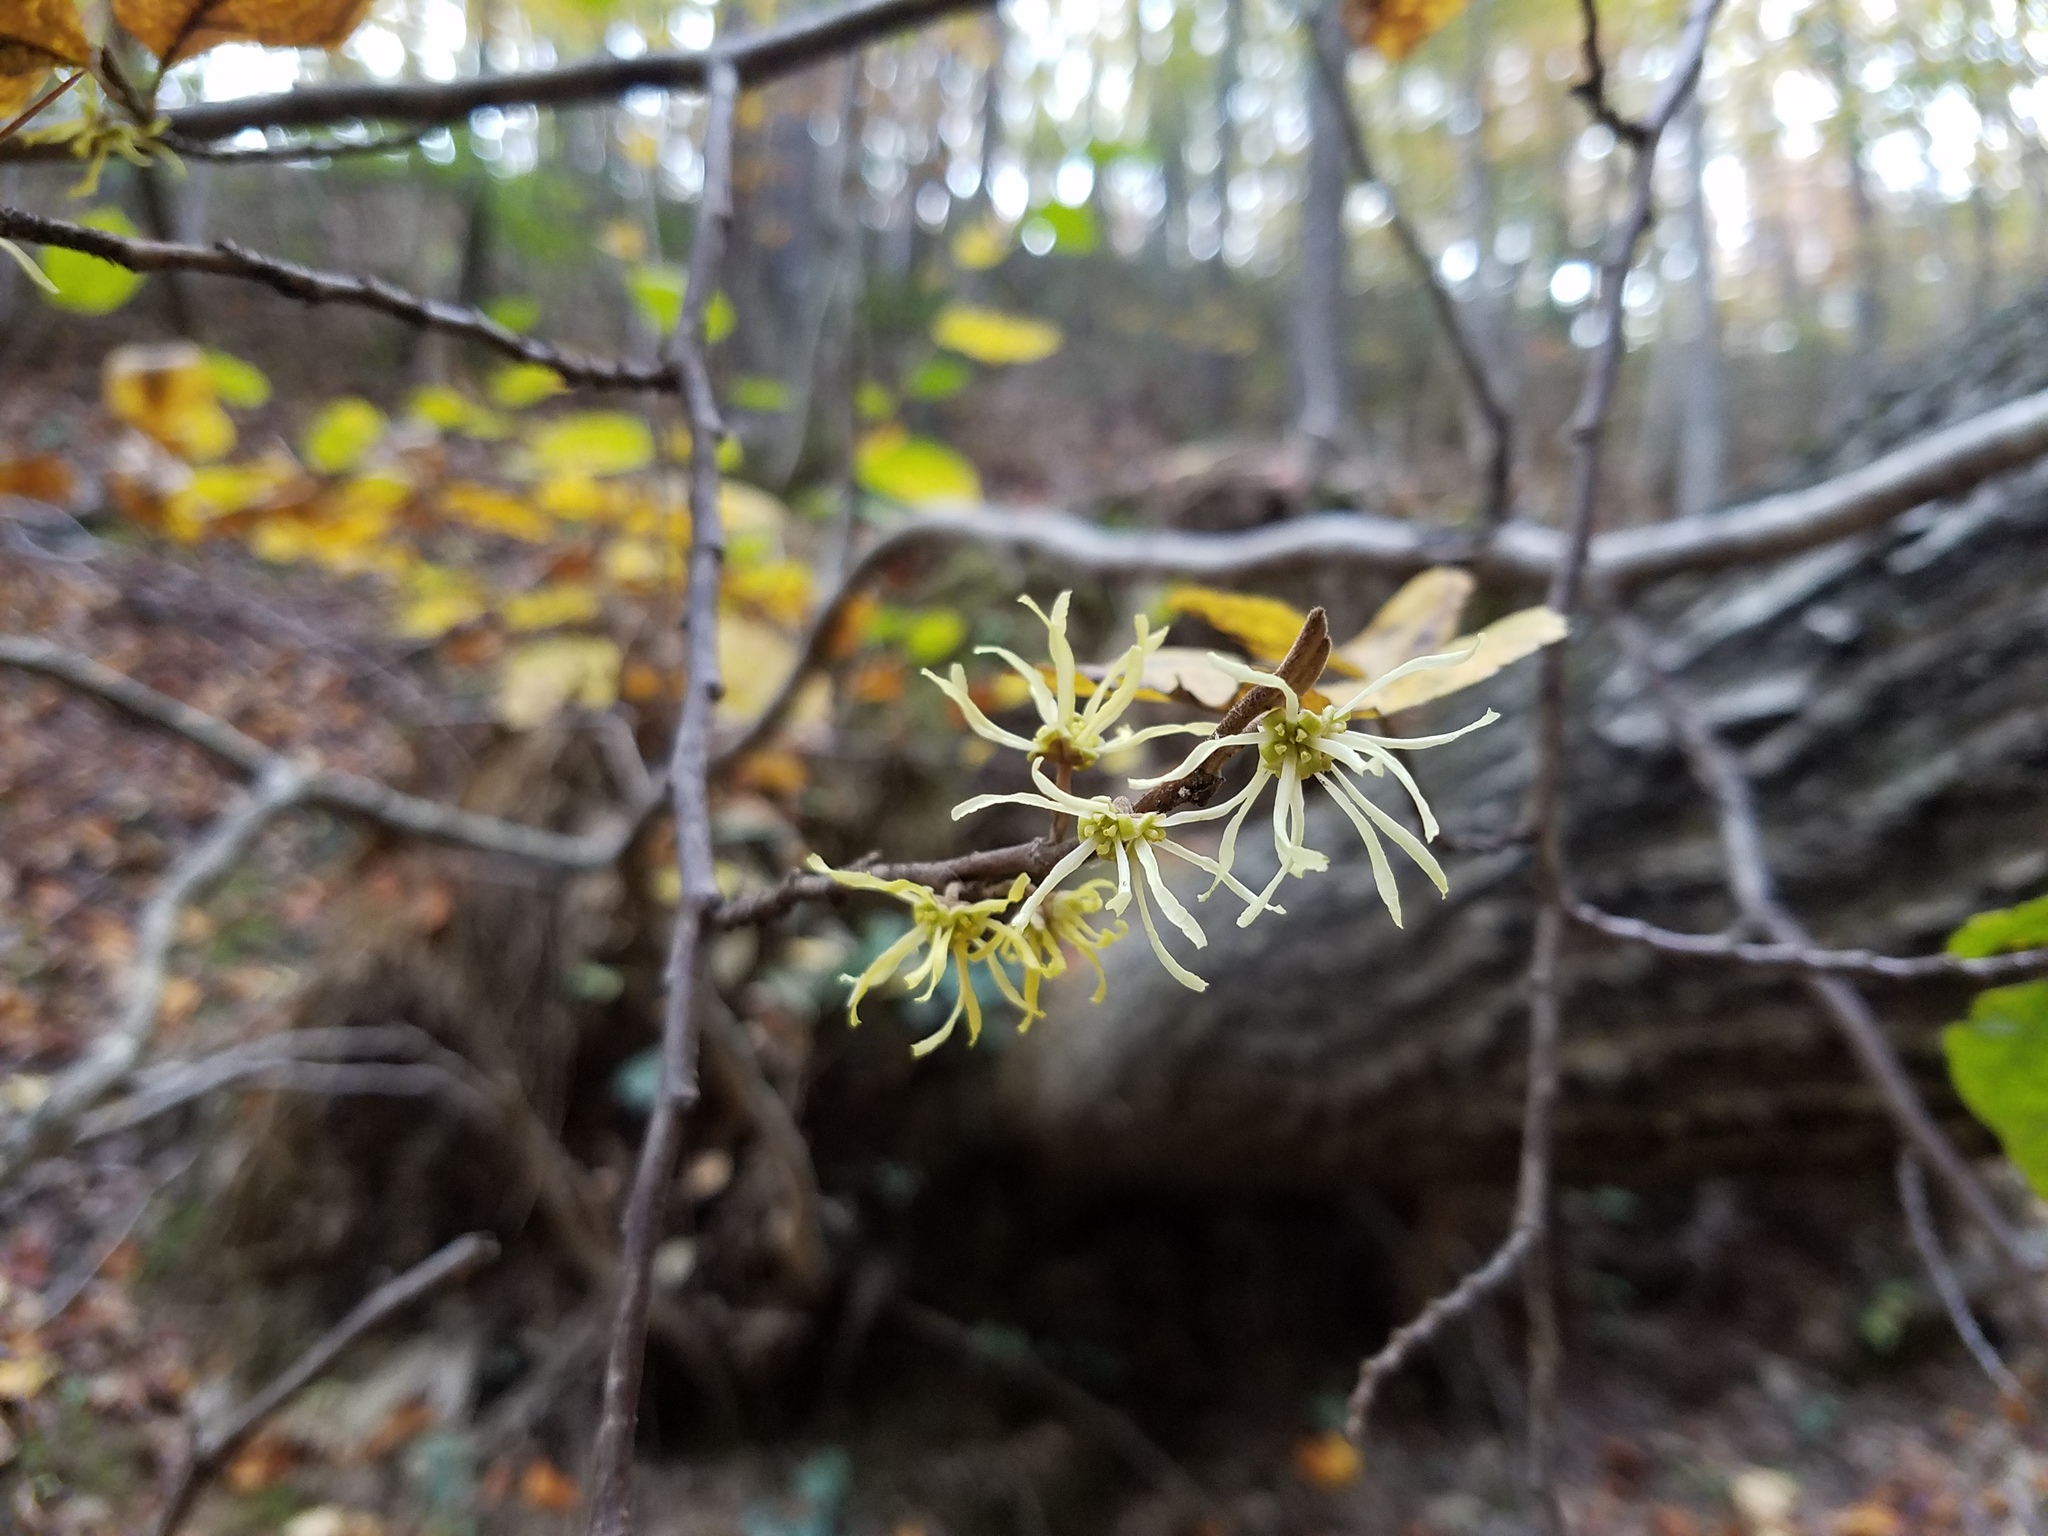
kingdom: Plantae
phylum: Tracheophyta
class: Magnoliopsida
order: Saxifragales
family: Hamamelidaceae
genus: Hamamelis
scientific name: Hamamelis virginiana
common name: Witch-hazel
